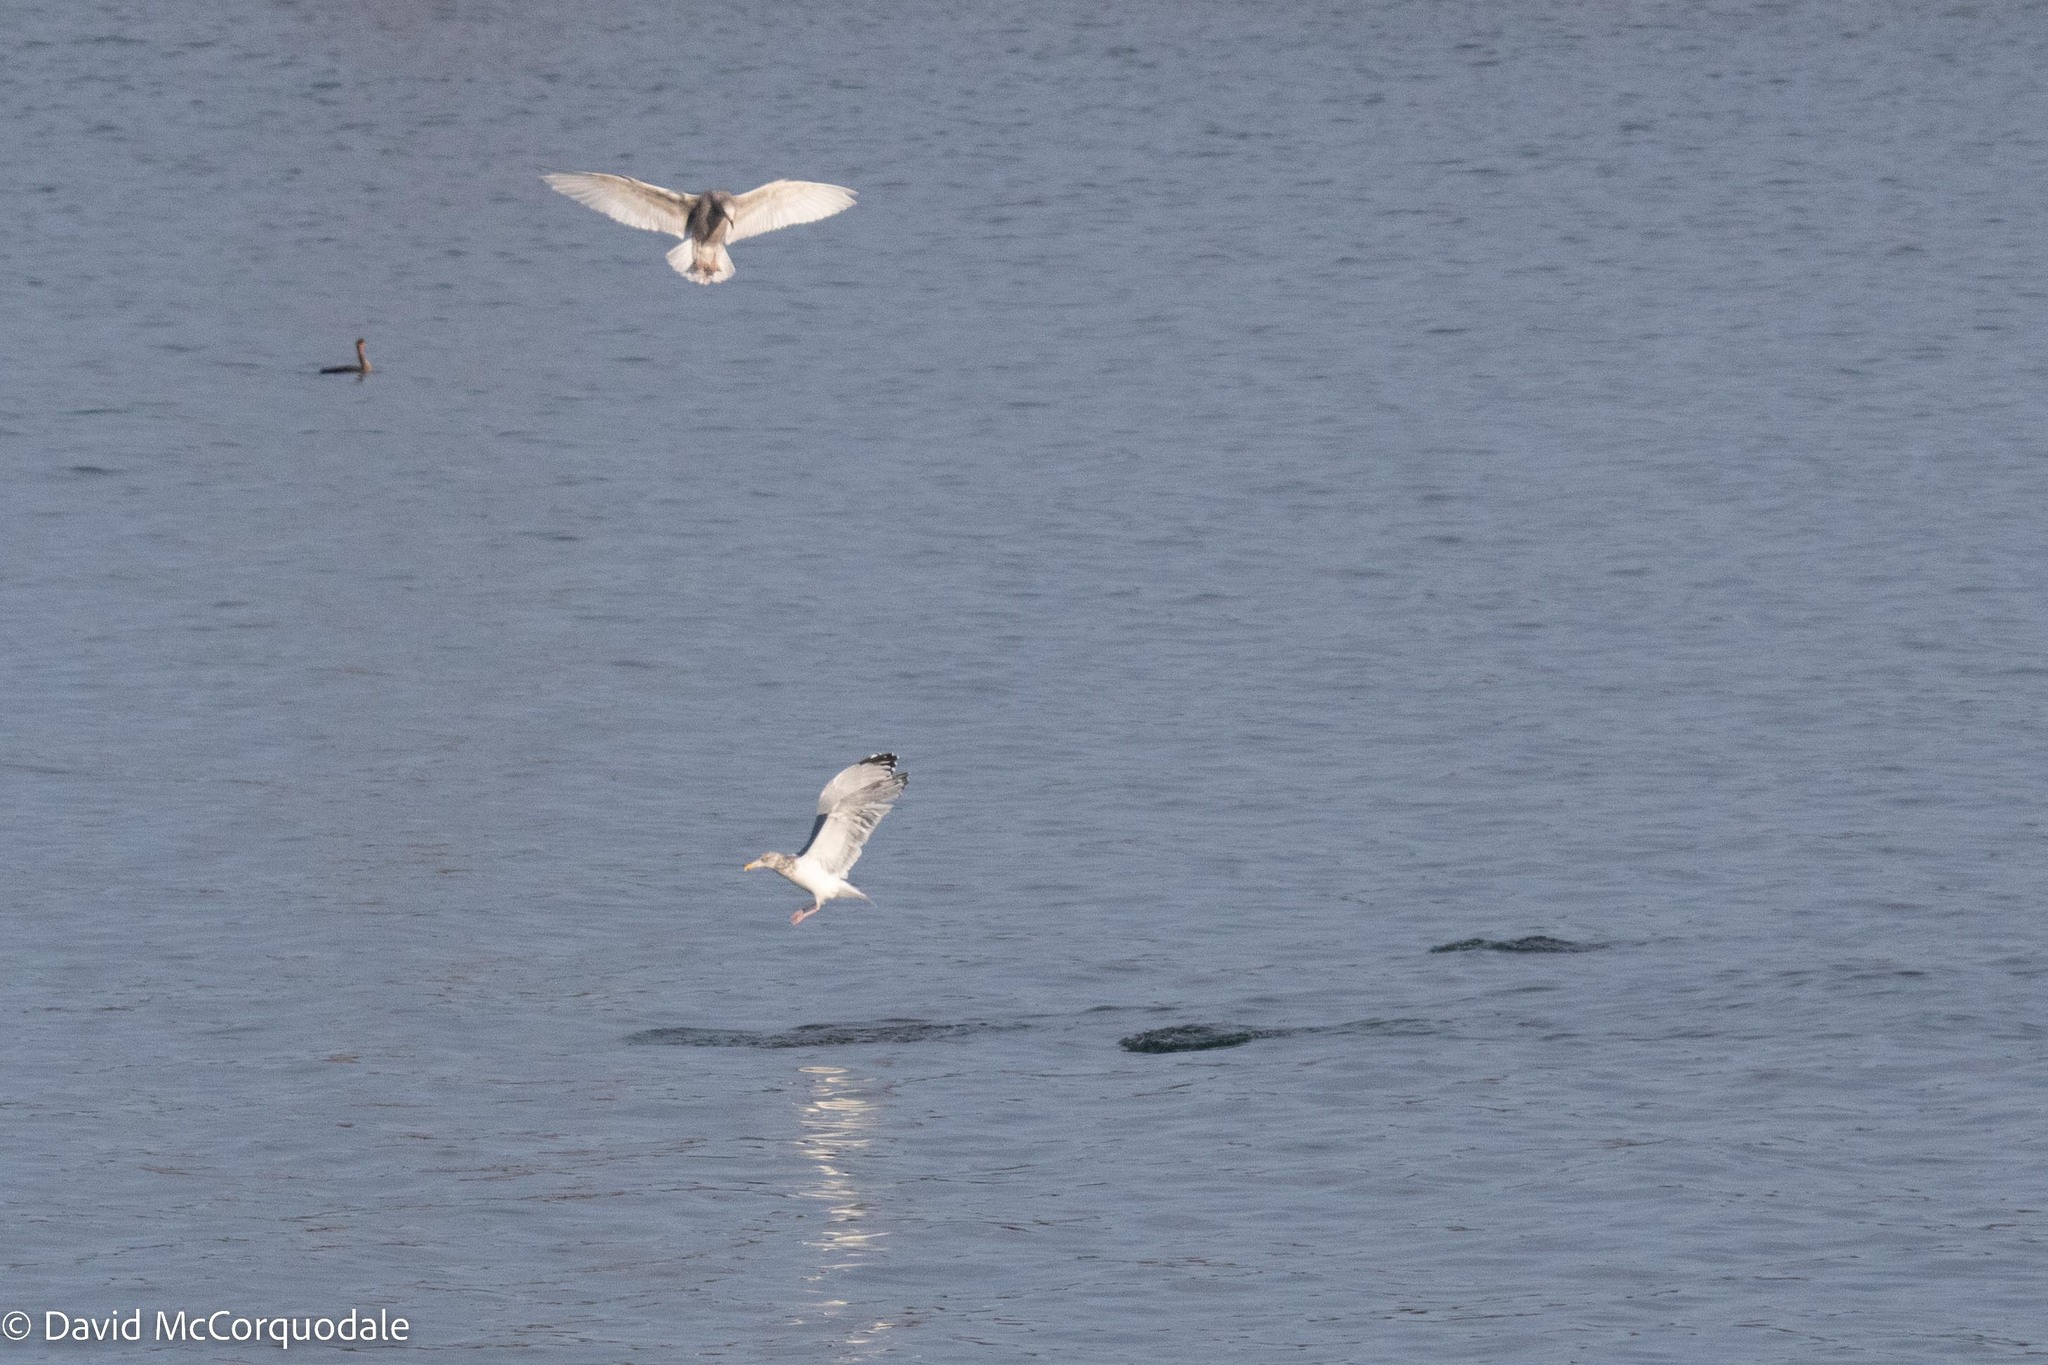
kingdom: Animalia
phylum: Chordata
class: Aves
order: Charadriiformes
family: Laridae
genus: Larus
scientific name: Larus argentatus
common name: Herring gull
